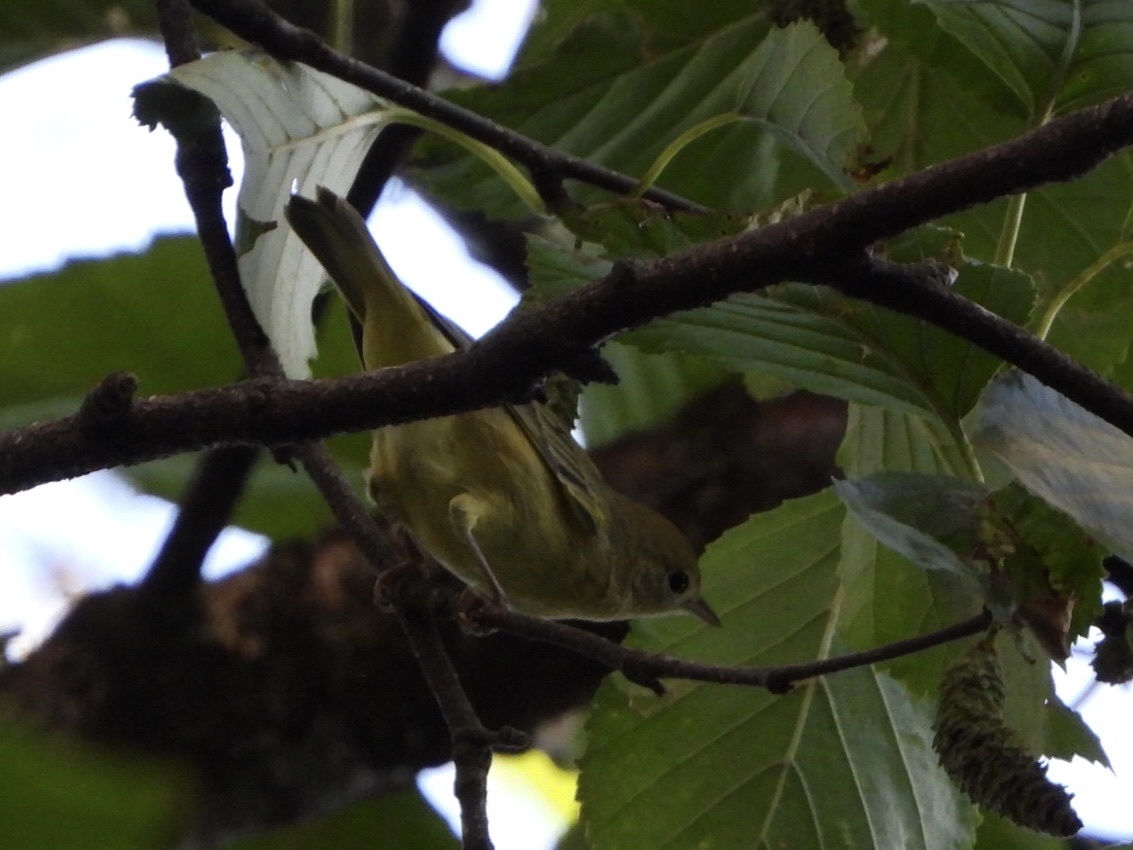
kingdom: Animalia
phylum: Chordata
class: Aves
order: Passeriformes
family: Parulidae
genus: Setophaga
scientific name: Setophaga petechia
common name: Yellow warbler
